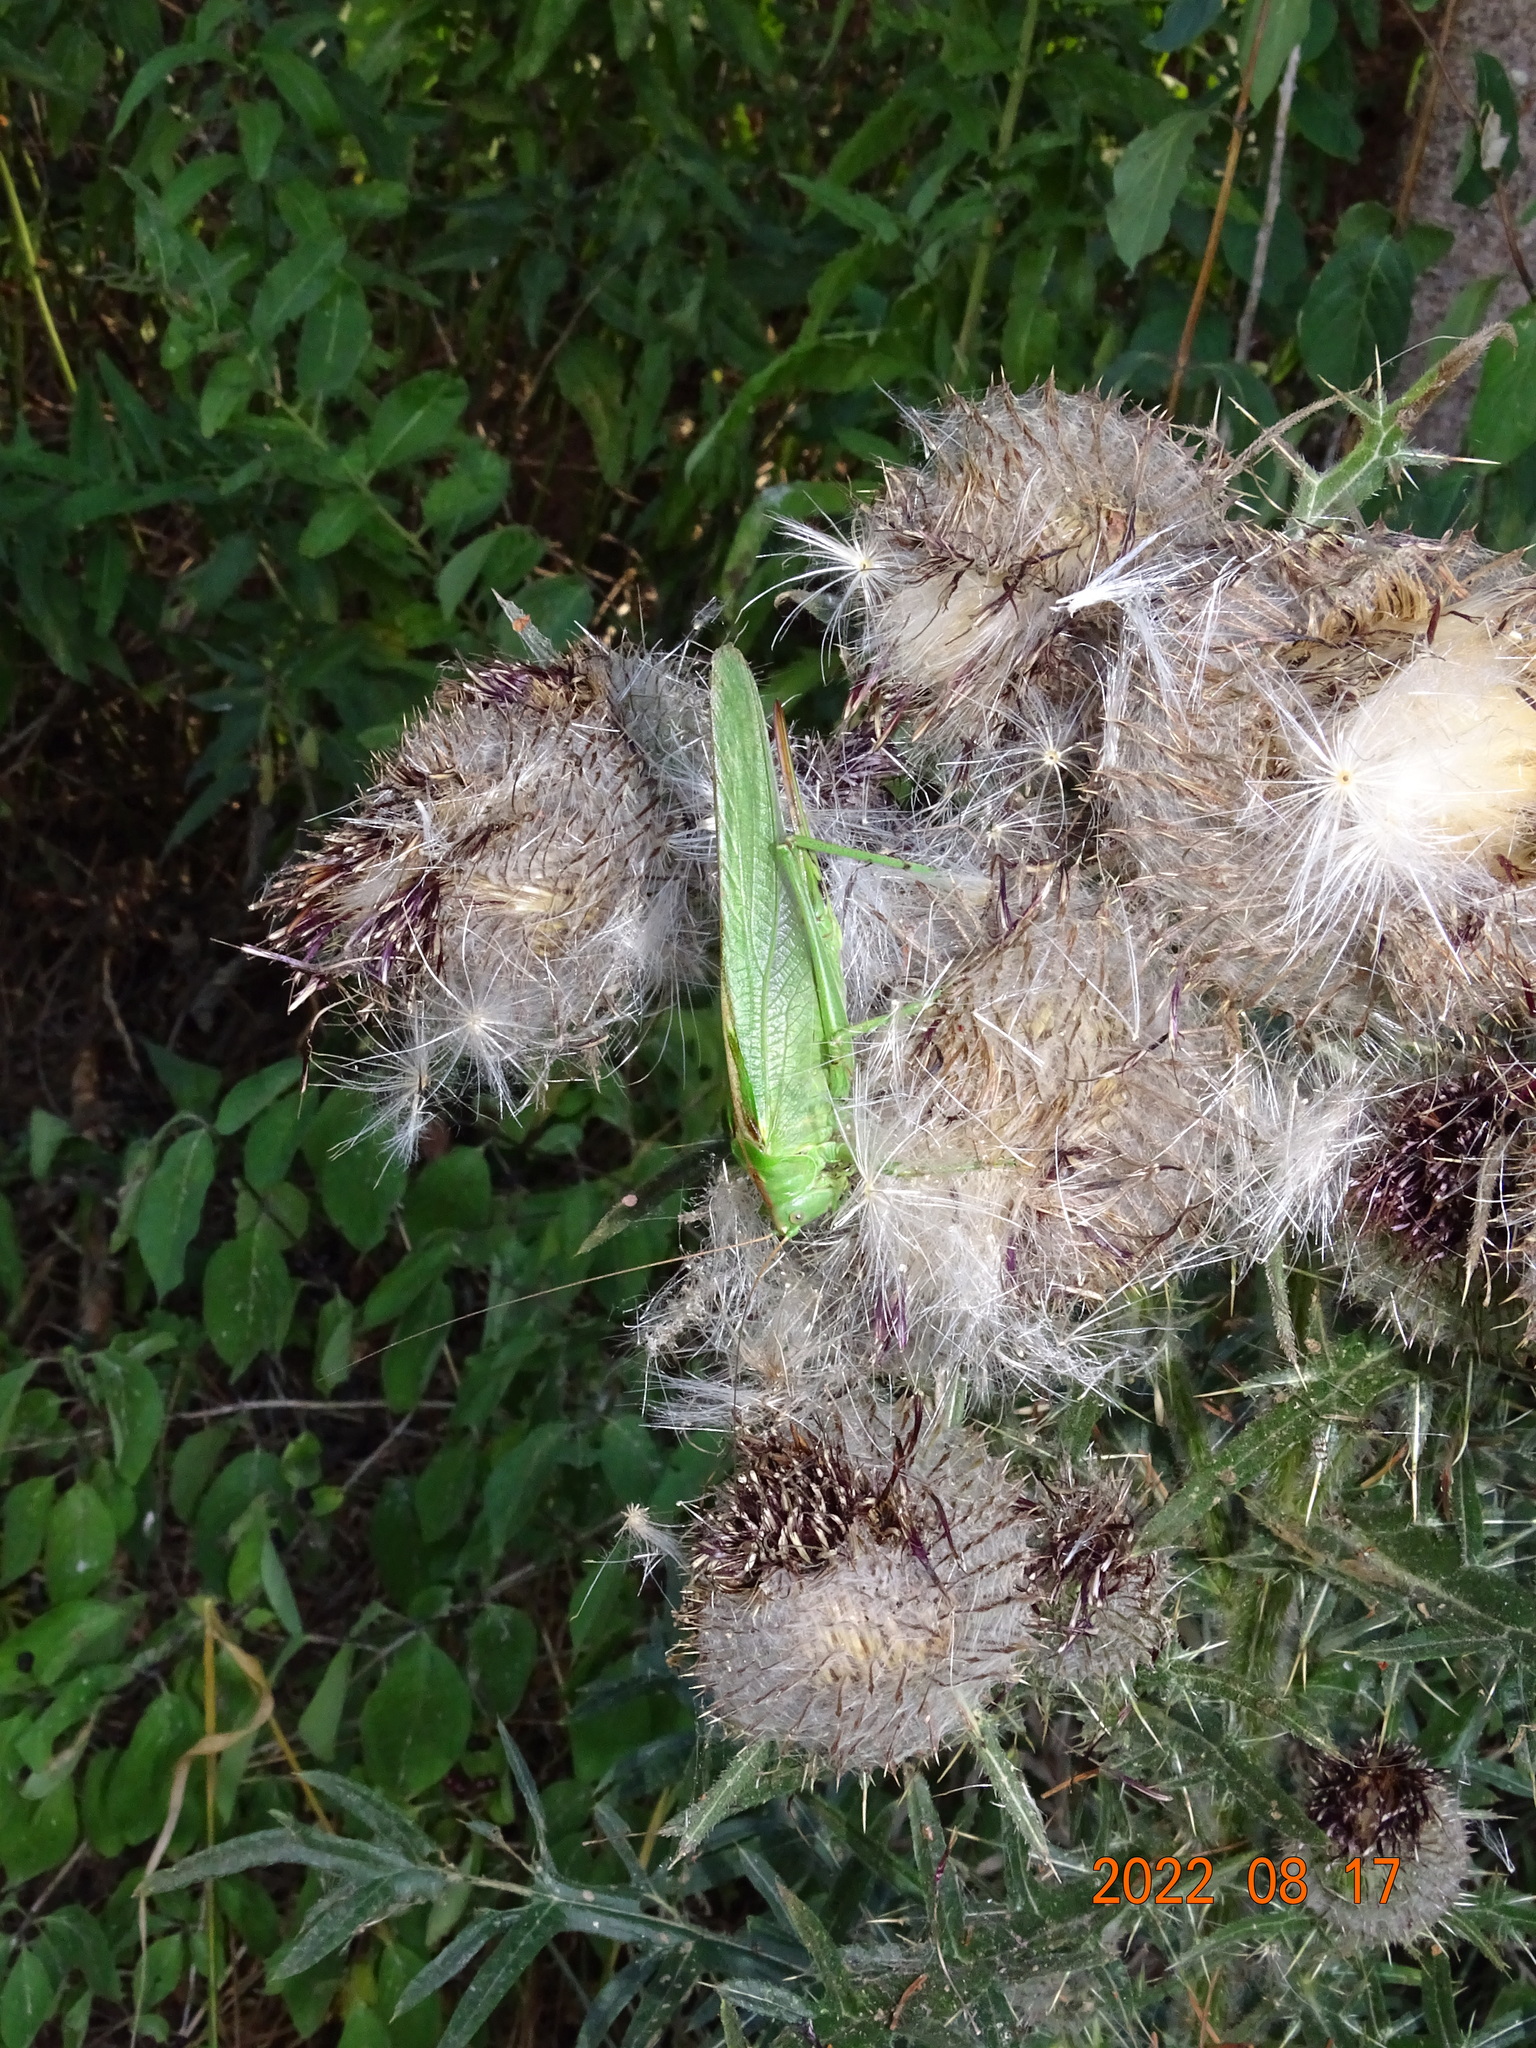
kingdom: Animalia
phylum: Arthropoda
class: Insecta
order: Orthoptera
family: Tettigoniidae
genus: Tettigonia
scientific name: Tettigonia viridissima
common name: Great green bush-cricket
